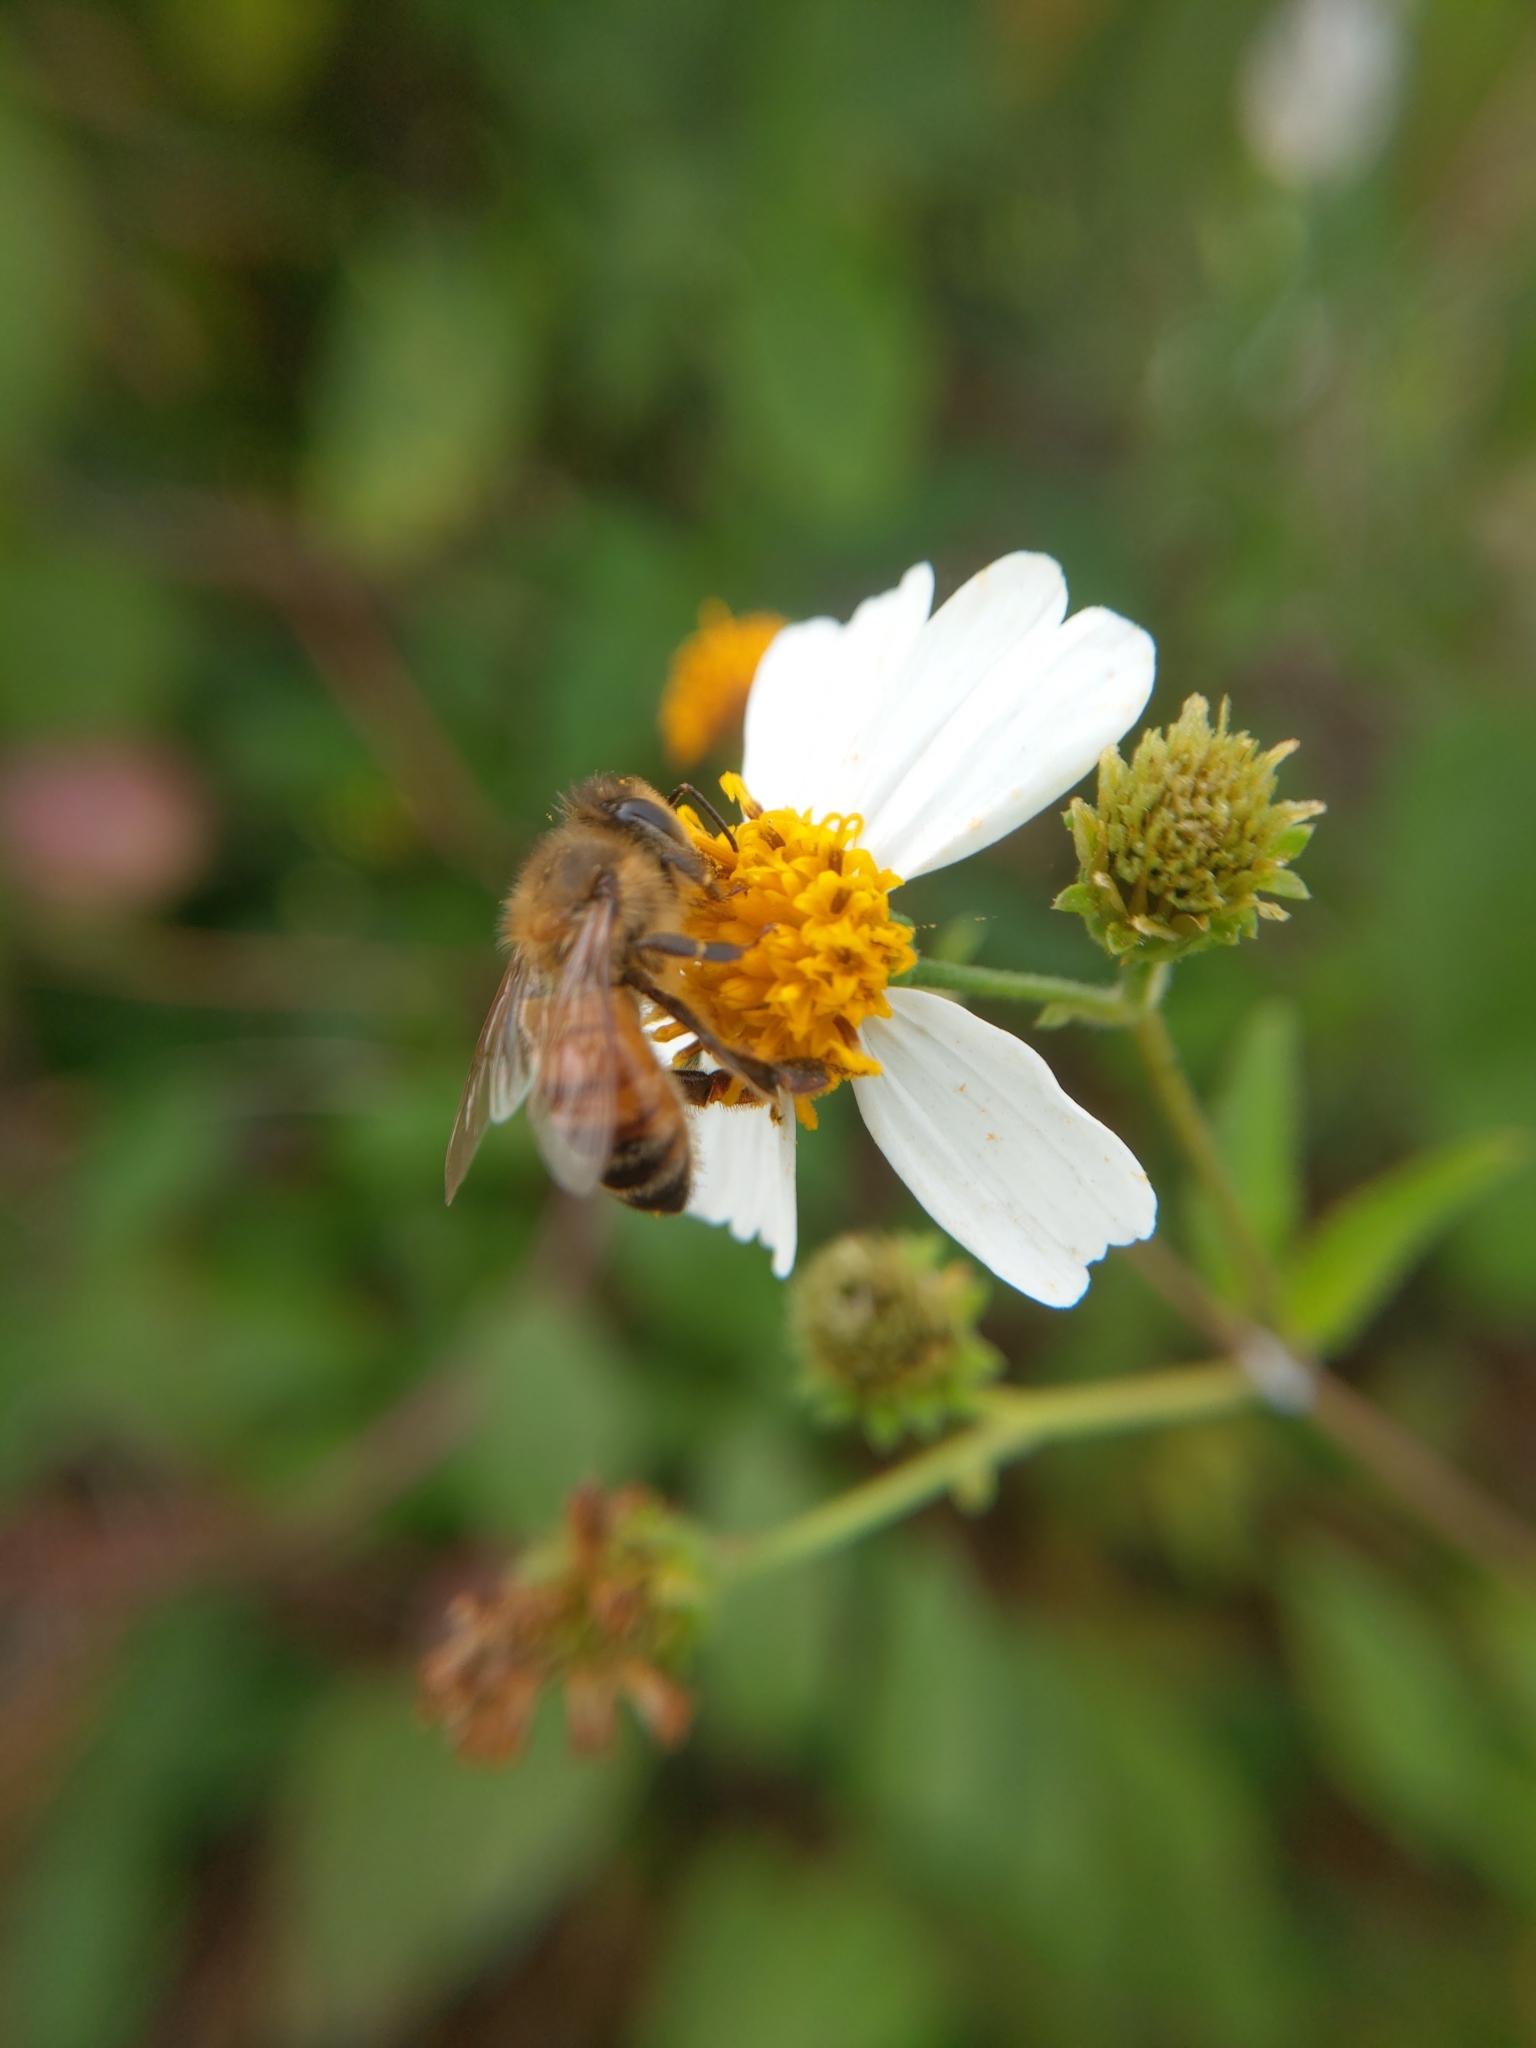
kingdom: Animalia
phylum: Arthropoda
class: Insecta
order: Hymenoptera
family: Apidae
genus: Apis
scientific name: Apis mellifera
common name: Honey bee
